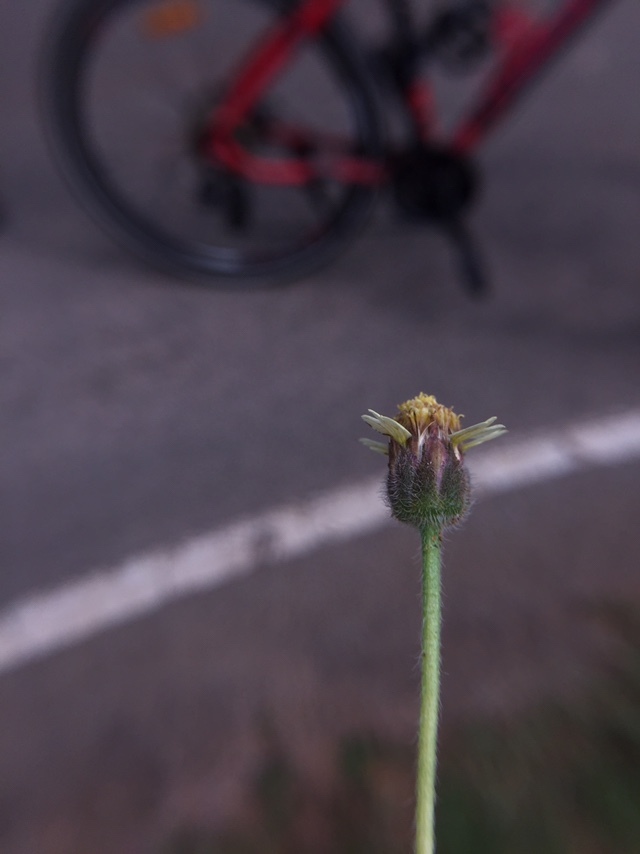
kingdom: Plantae
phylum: Tracheophyta
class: Magnoliopsida
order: Asterales
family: Asteraceae
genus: Tridax
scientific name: Tridax procumbens
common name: Coatbuttons
